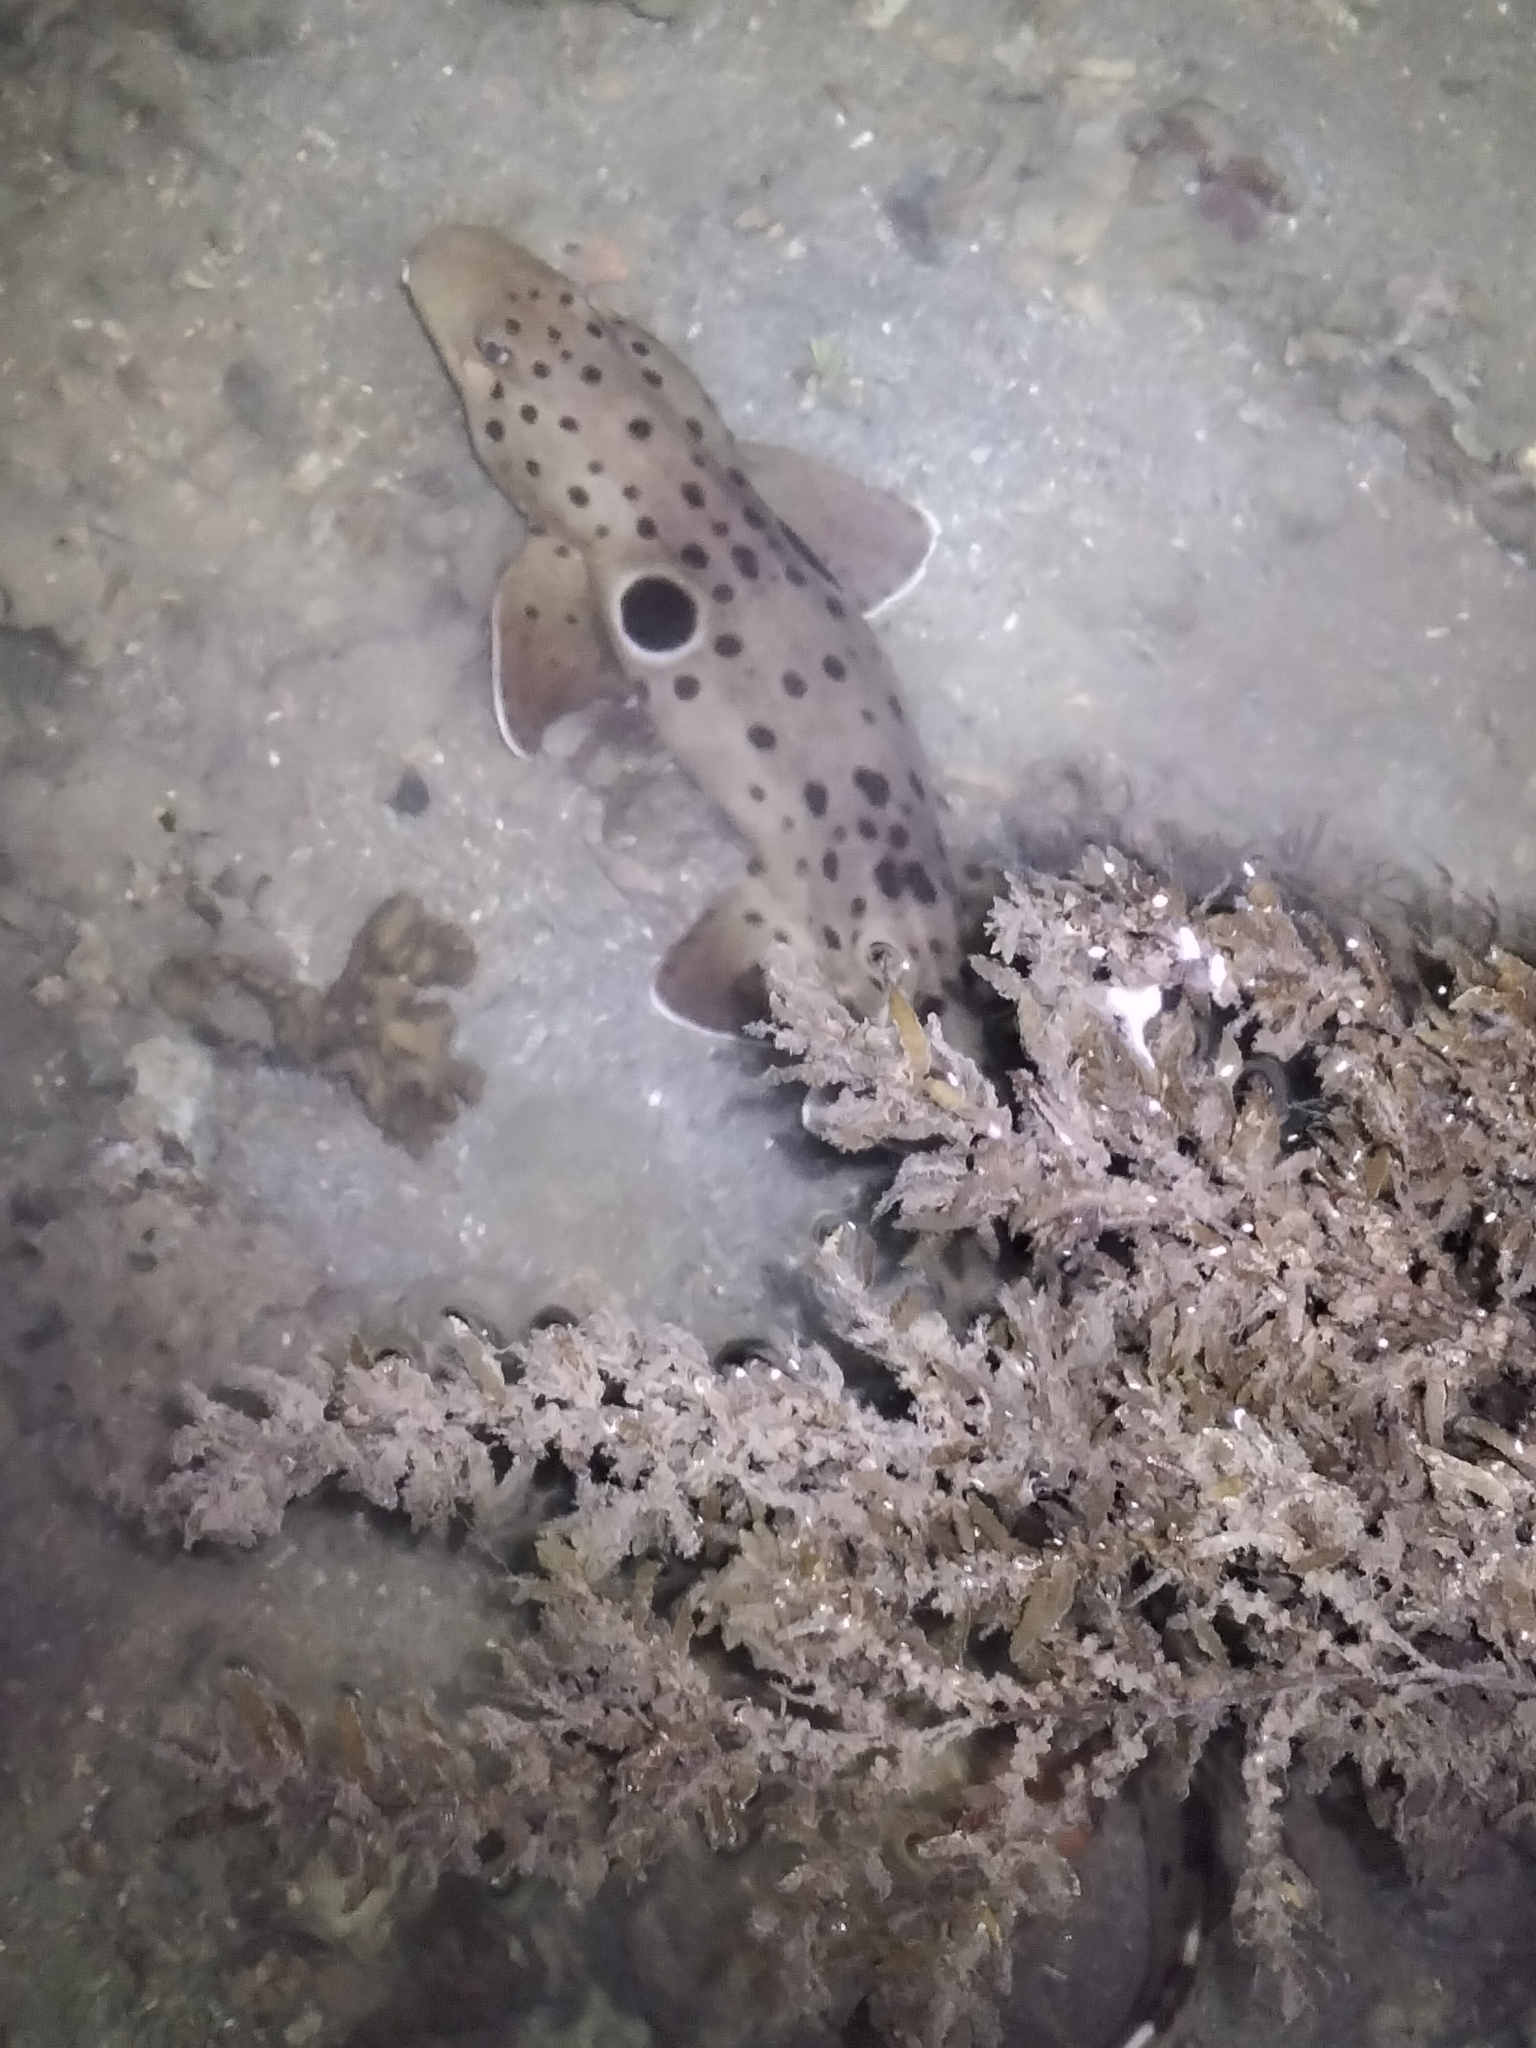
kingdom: Animalia
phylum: Chordata
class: Elasmobranchii
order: Orectolobiformes
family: Hemiscylliidae
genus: Hemiscyllium
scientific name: Hemiscyllium ocellatum
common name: Epaulette shark
